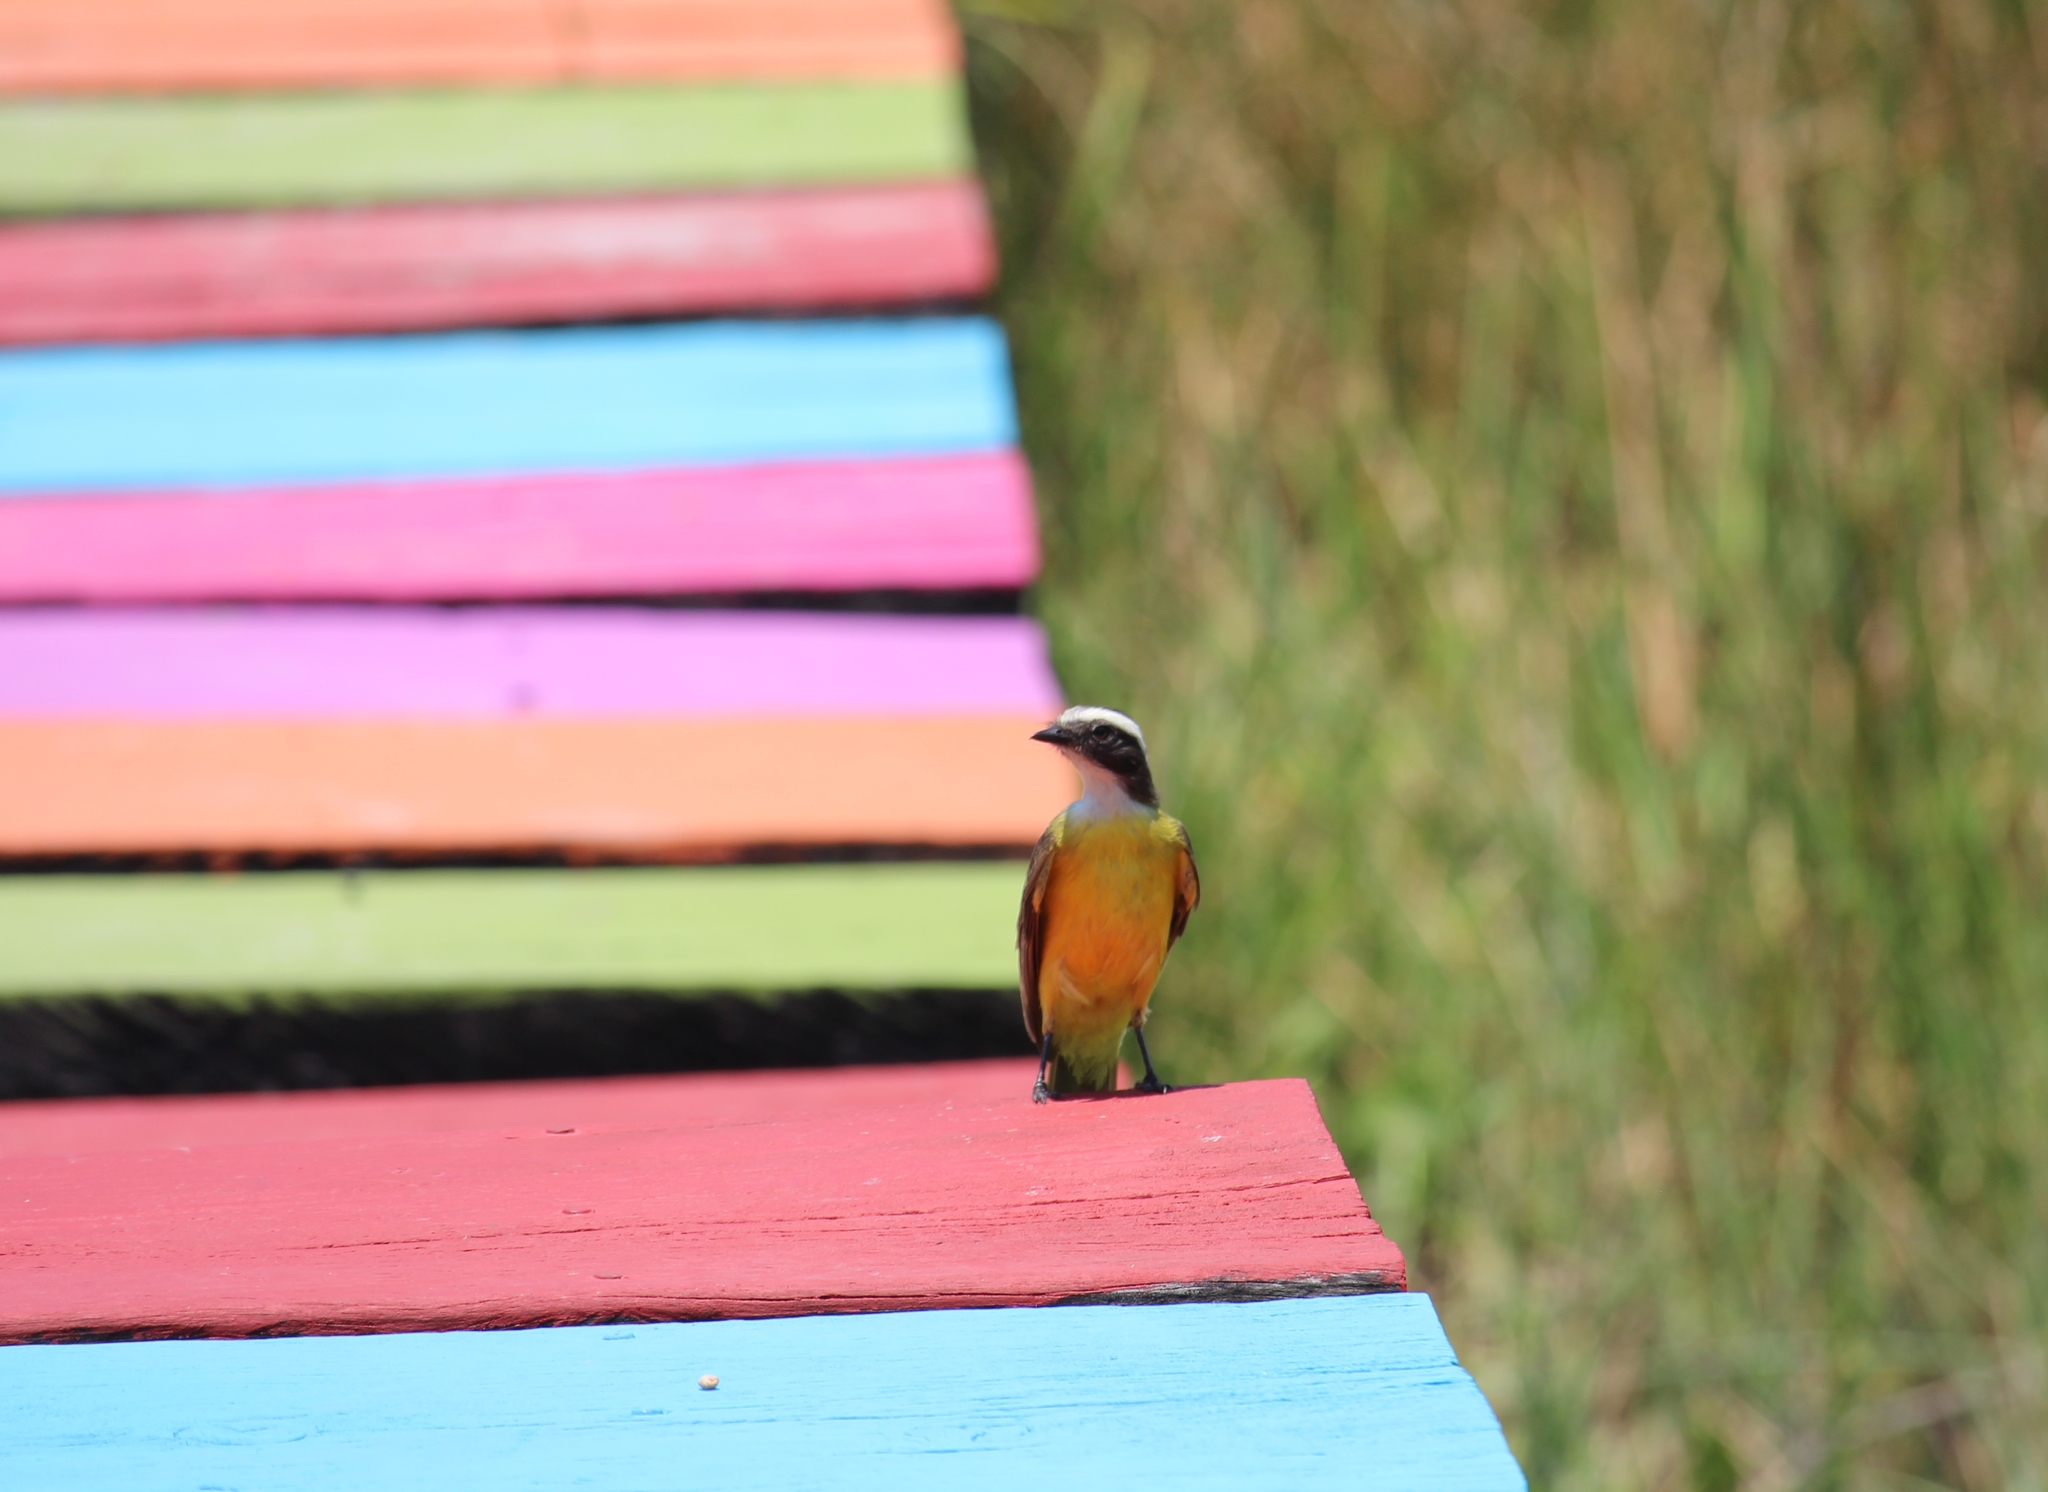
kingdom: Animalia
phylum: Chordata
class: Aves
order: Passeriformes
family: Tyrannidae
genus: Myiozetetes
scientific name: Myiozetetes similis
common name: Social flycatcher
